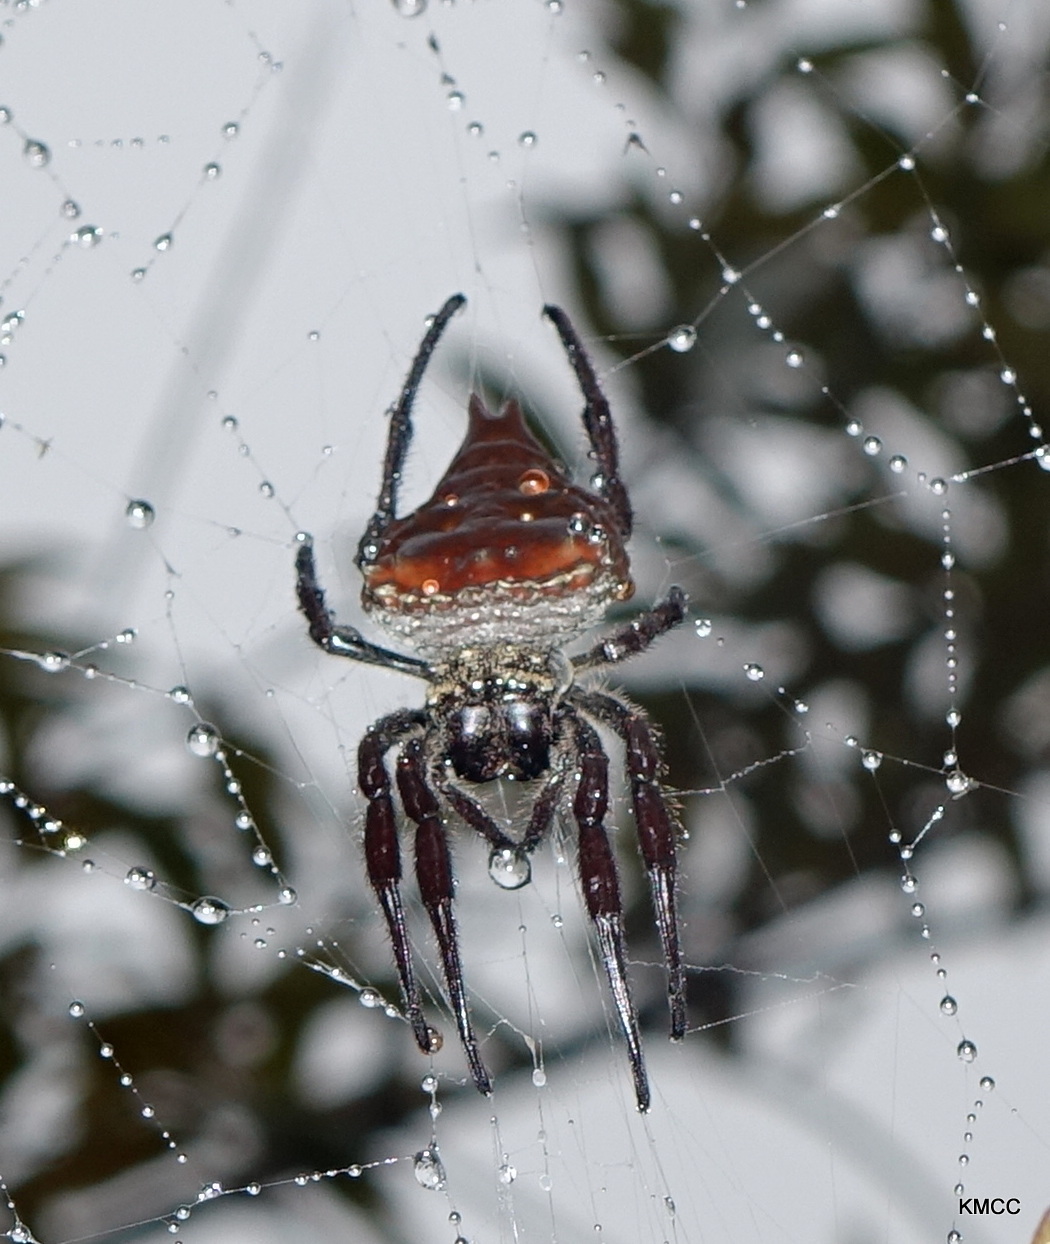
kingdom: Animalia
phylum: Arthropoda
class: Arachnida
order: Araneae
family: Araneidae
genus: Caerostris
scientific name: Caerostris extrusa
